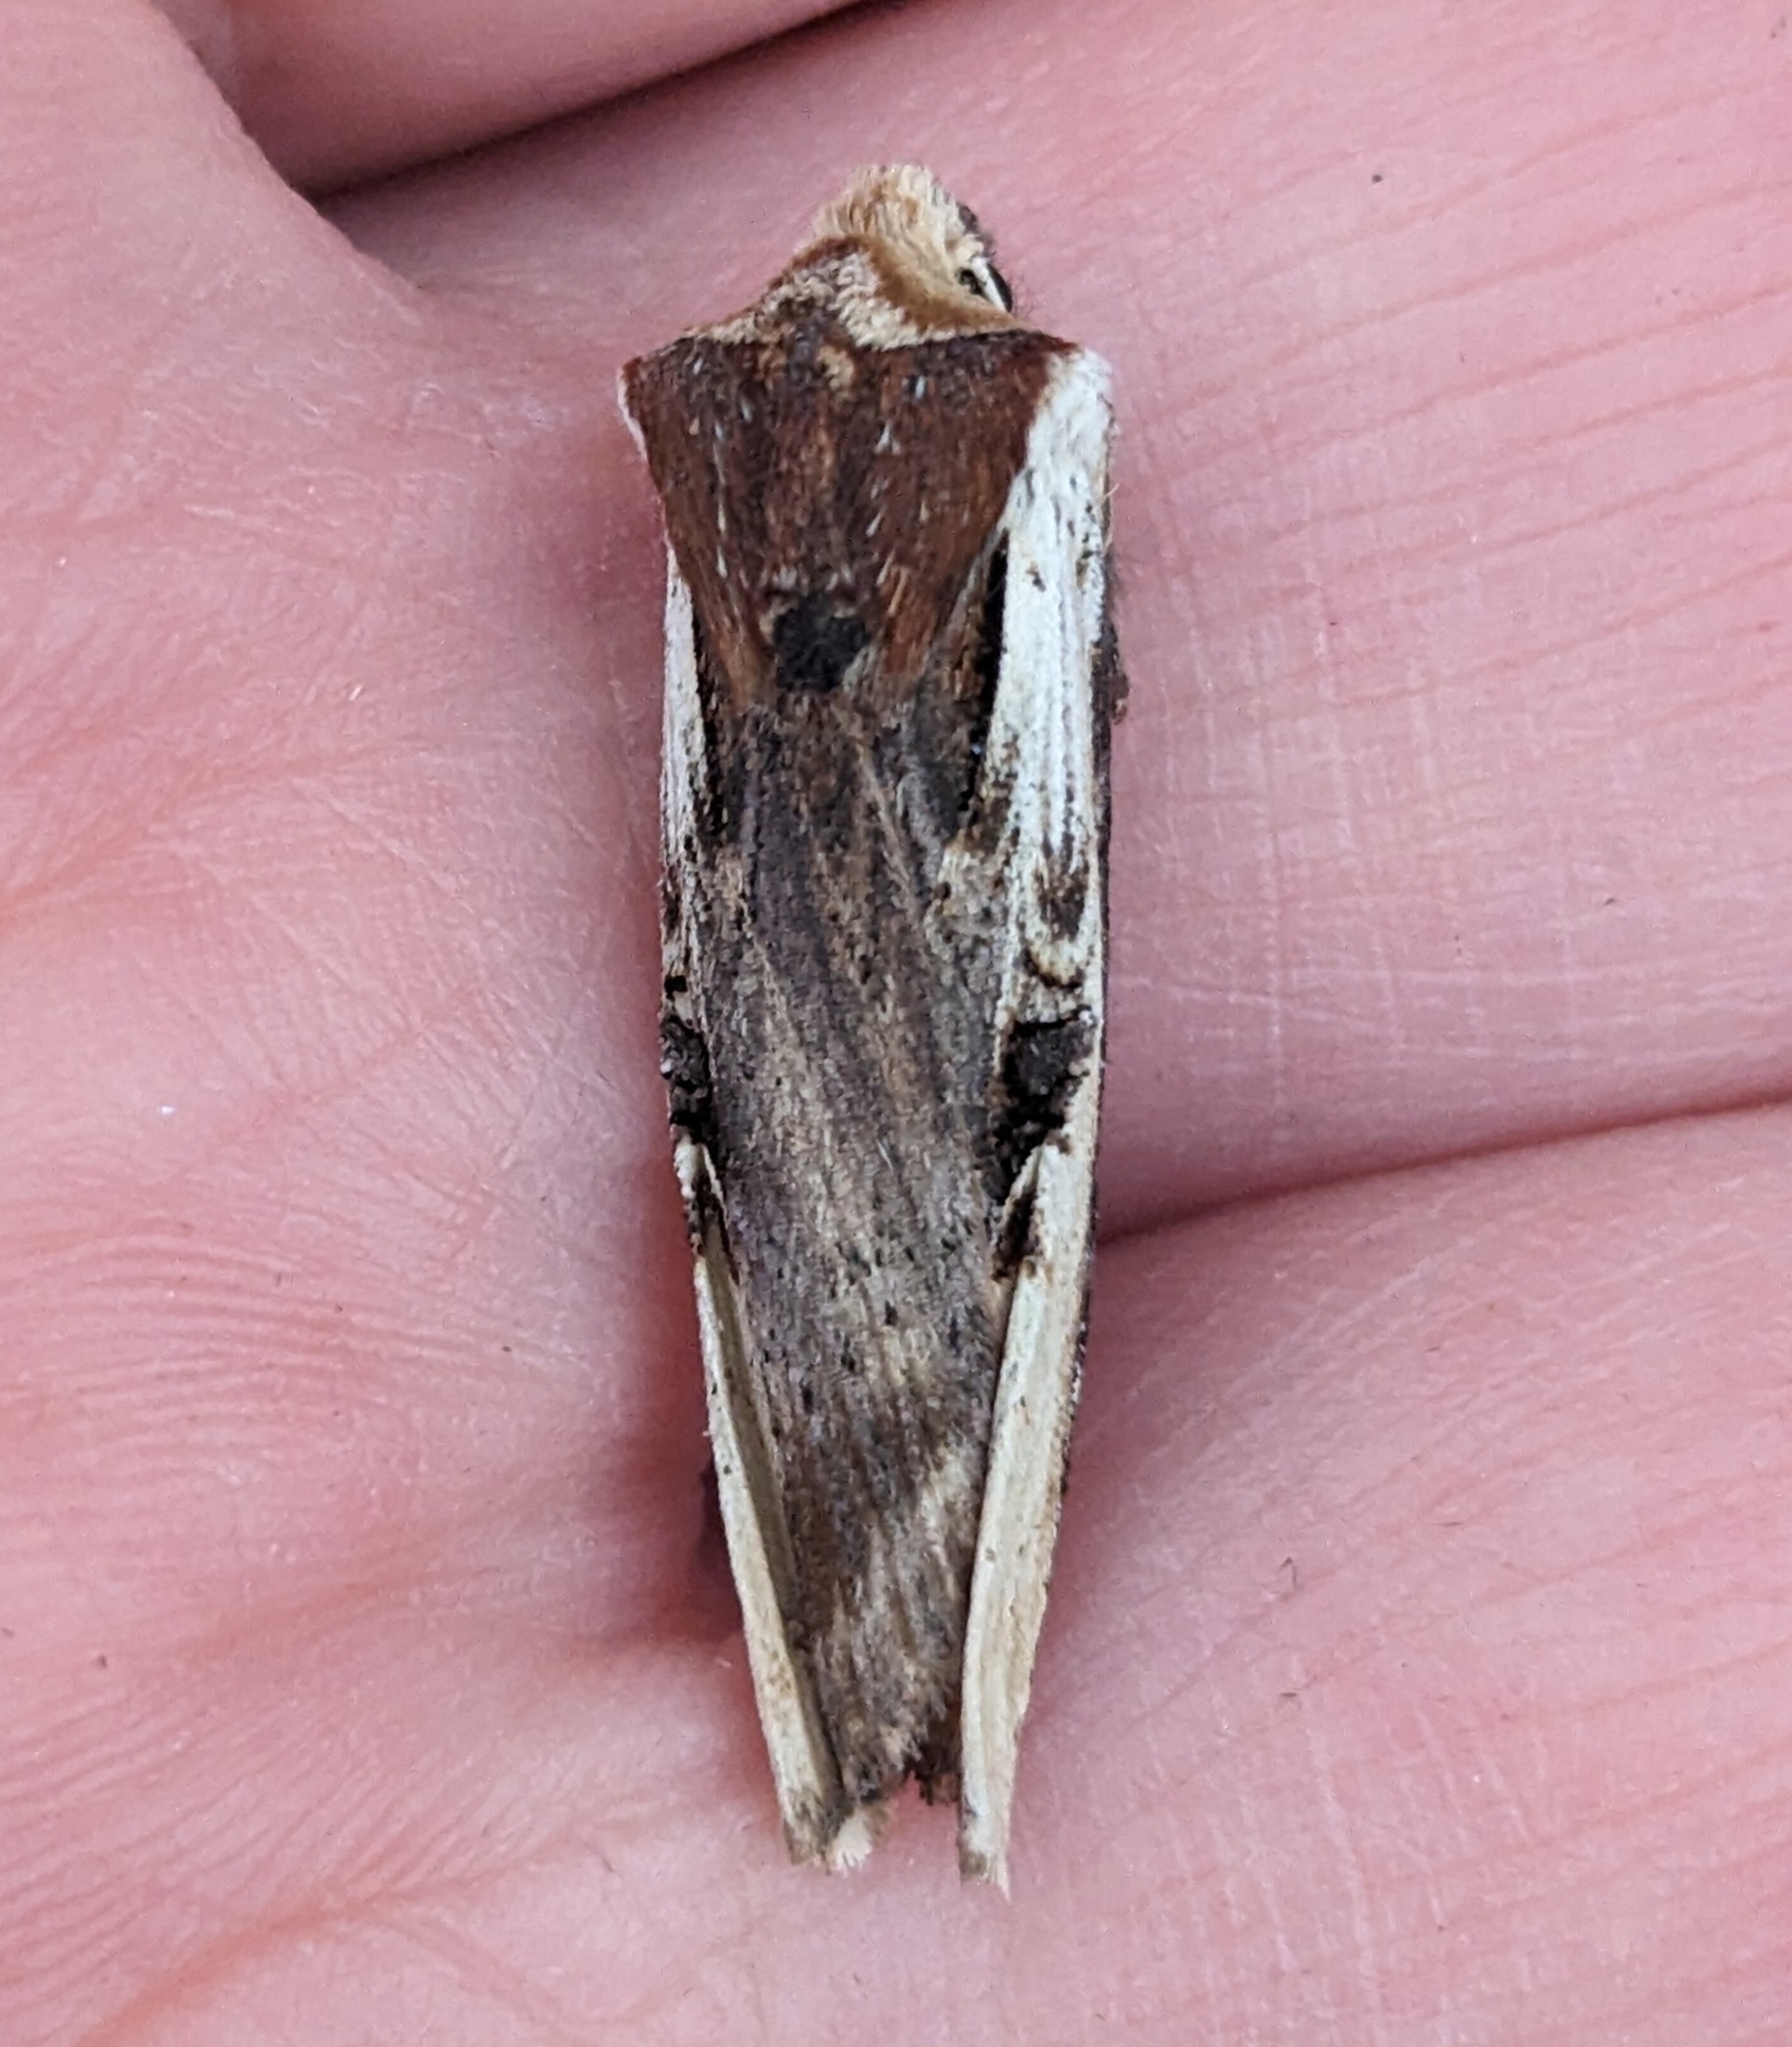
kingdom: Animalia
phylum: Arthropoda
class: Insecta
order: Lepidoptera
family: Noctuidae
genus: Xylena
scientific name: Xylena curvimacula
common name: Dot-and-dash swordgrass moth
